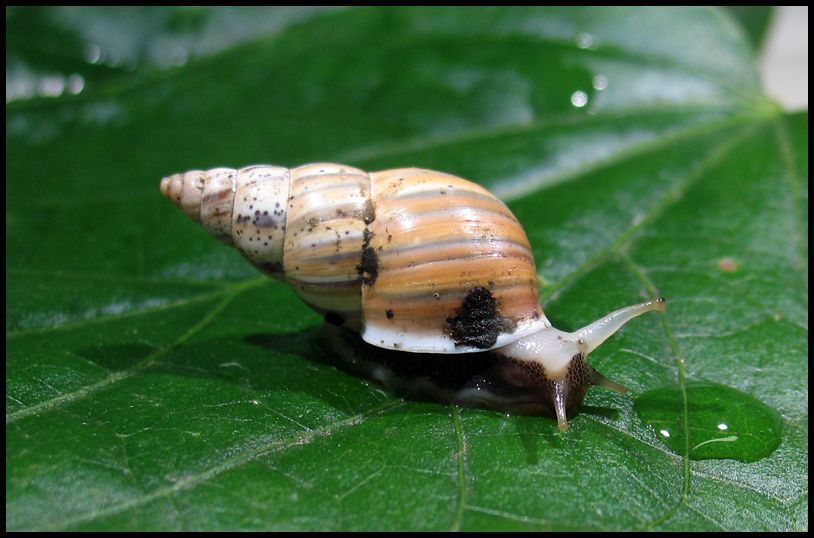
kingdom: Animalia
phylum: Mollusca
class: Gastropoda
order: Stylommatophora
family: Simpulopsidae
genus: Leiostracus
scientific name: Leiostracus vimineus
